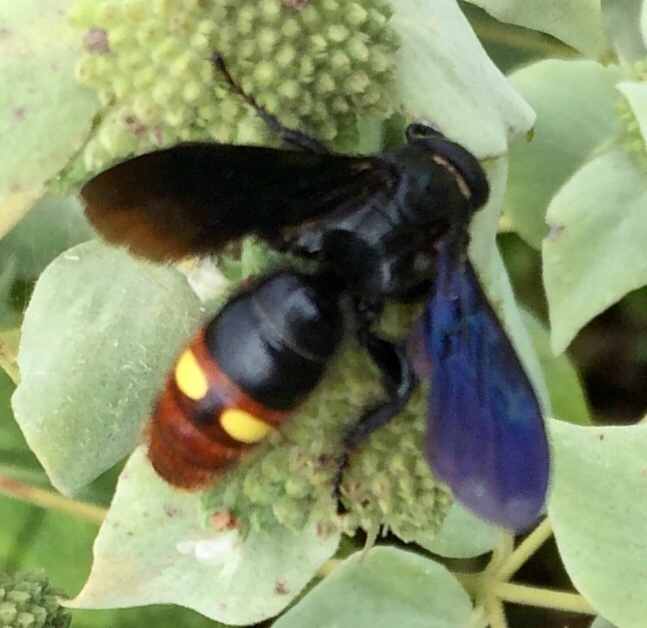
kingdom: Animalia
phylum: Arthropoda
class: Insecta
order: Hymenoptera
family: Scoliidae
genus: Scolia
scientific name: Scolia dubia
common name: Blue-winged scoliid wasp
